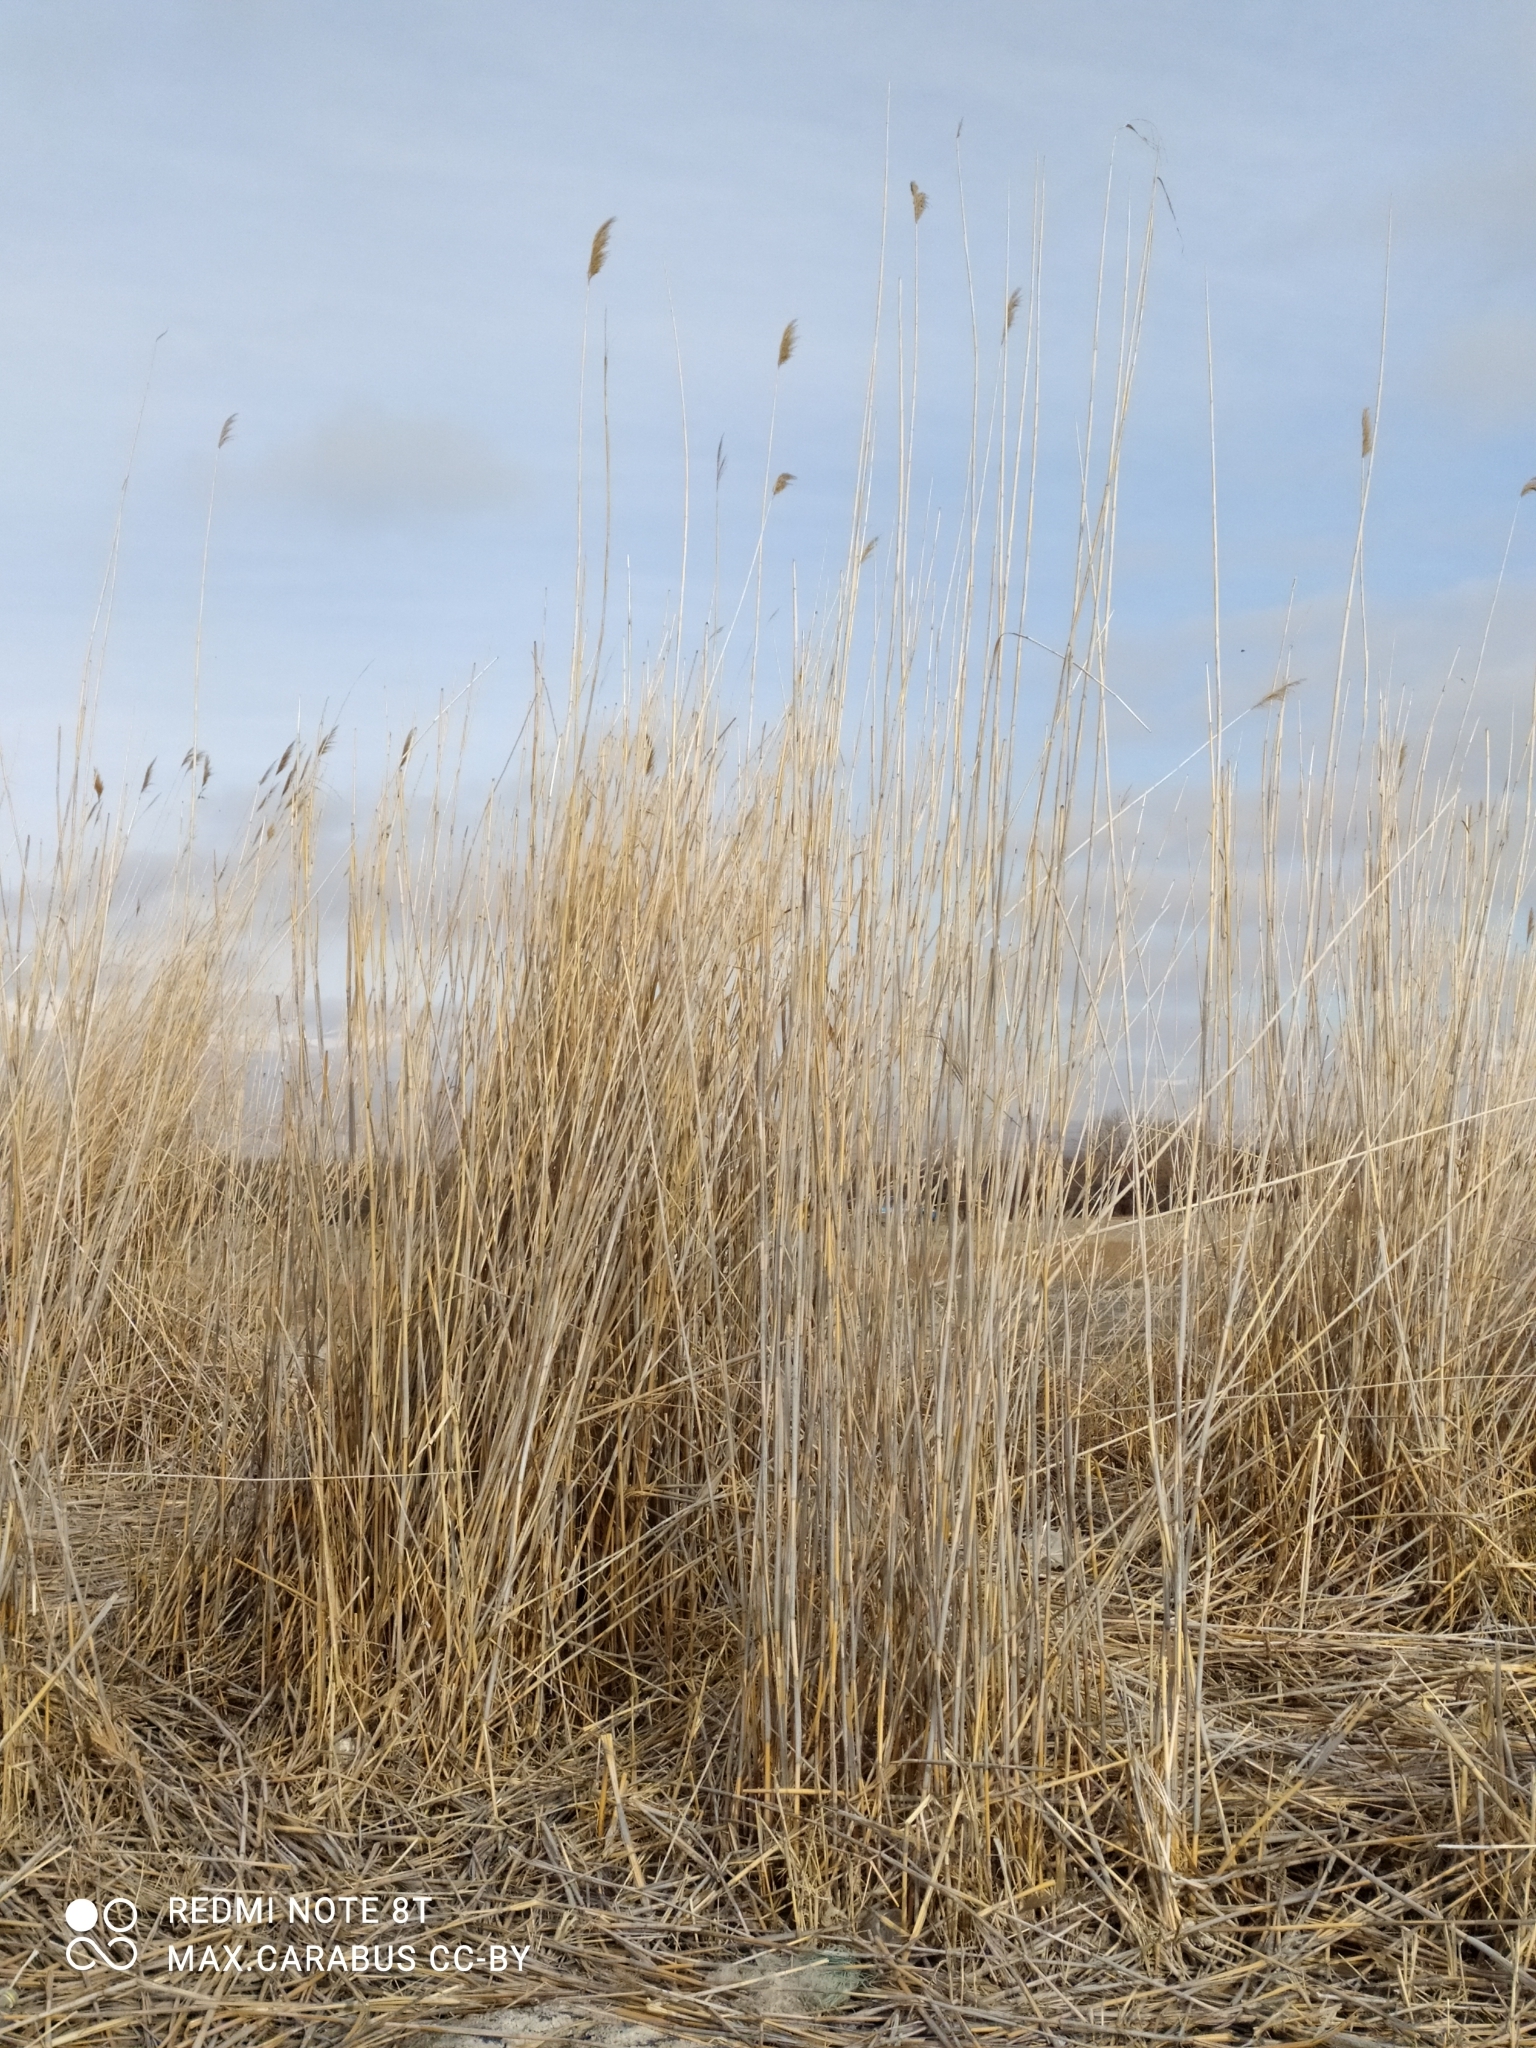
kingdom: Plantae
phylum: Tracheophyta
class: Liliopsida
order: Poales
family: Poaceae
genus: Phragmites
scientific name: Phragmites australis
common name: Common reed
